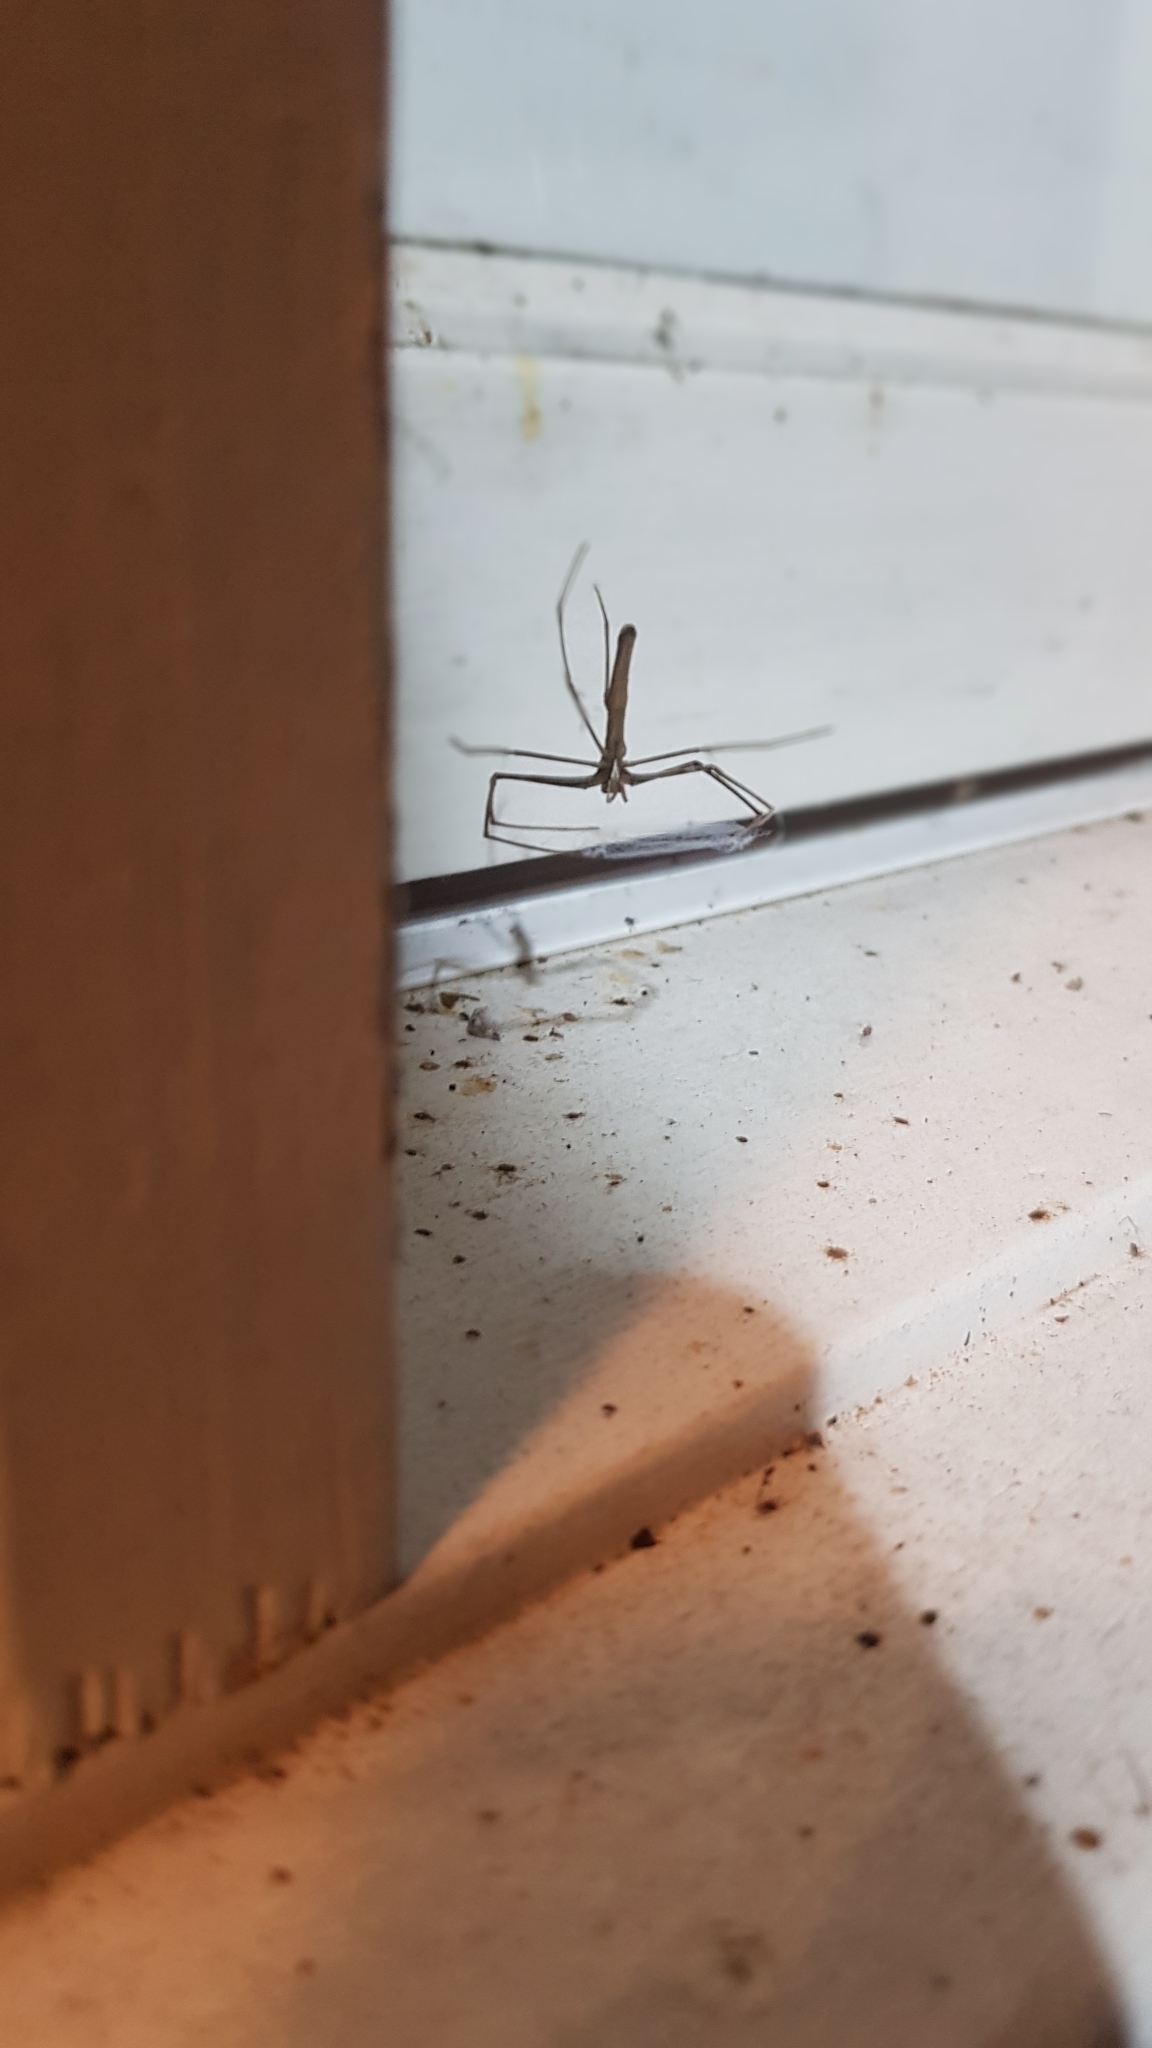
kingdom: Animalia
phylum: Arthropoda
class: Arachnida
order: Araneae
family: Deinopidae
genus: Deinopis
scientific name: Deinopis subrufa
